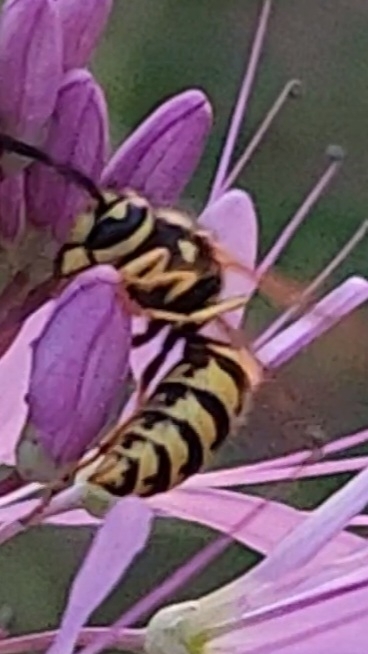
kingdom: Animalia
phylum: Arthropoda
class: Insecta
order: Hymenoptera
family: Vespidae
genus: Vespula
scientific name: Vespula pensylvanica
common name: Western yellowjacket
